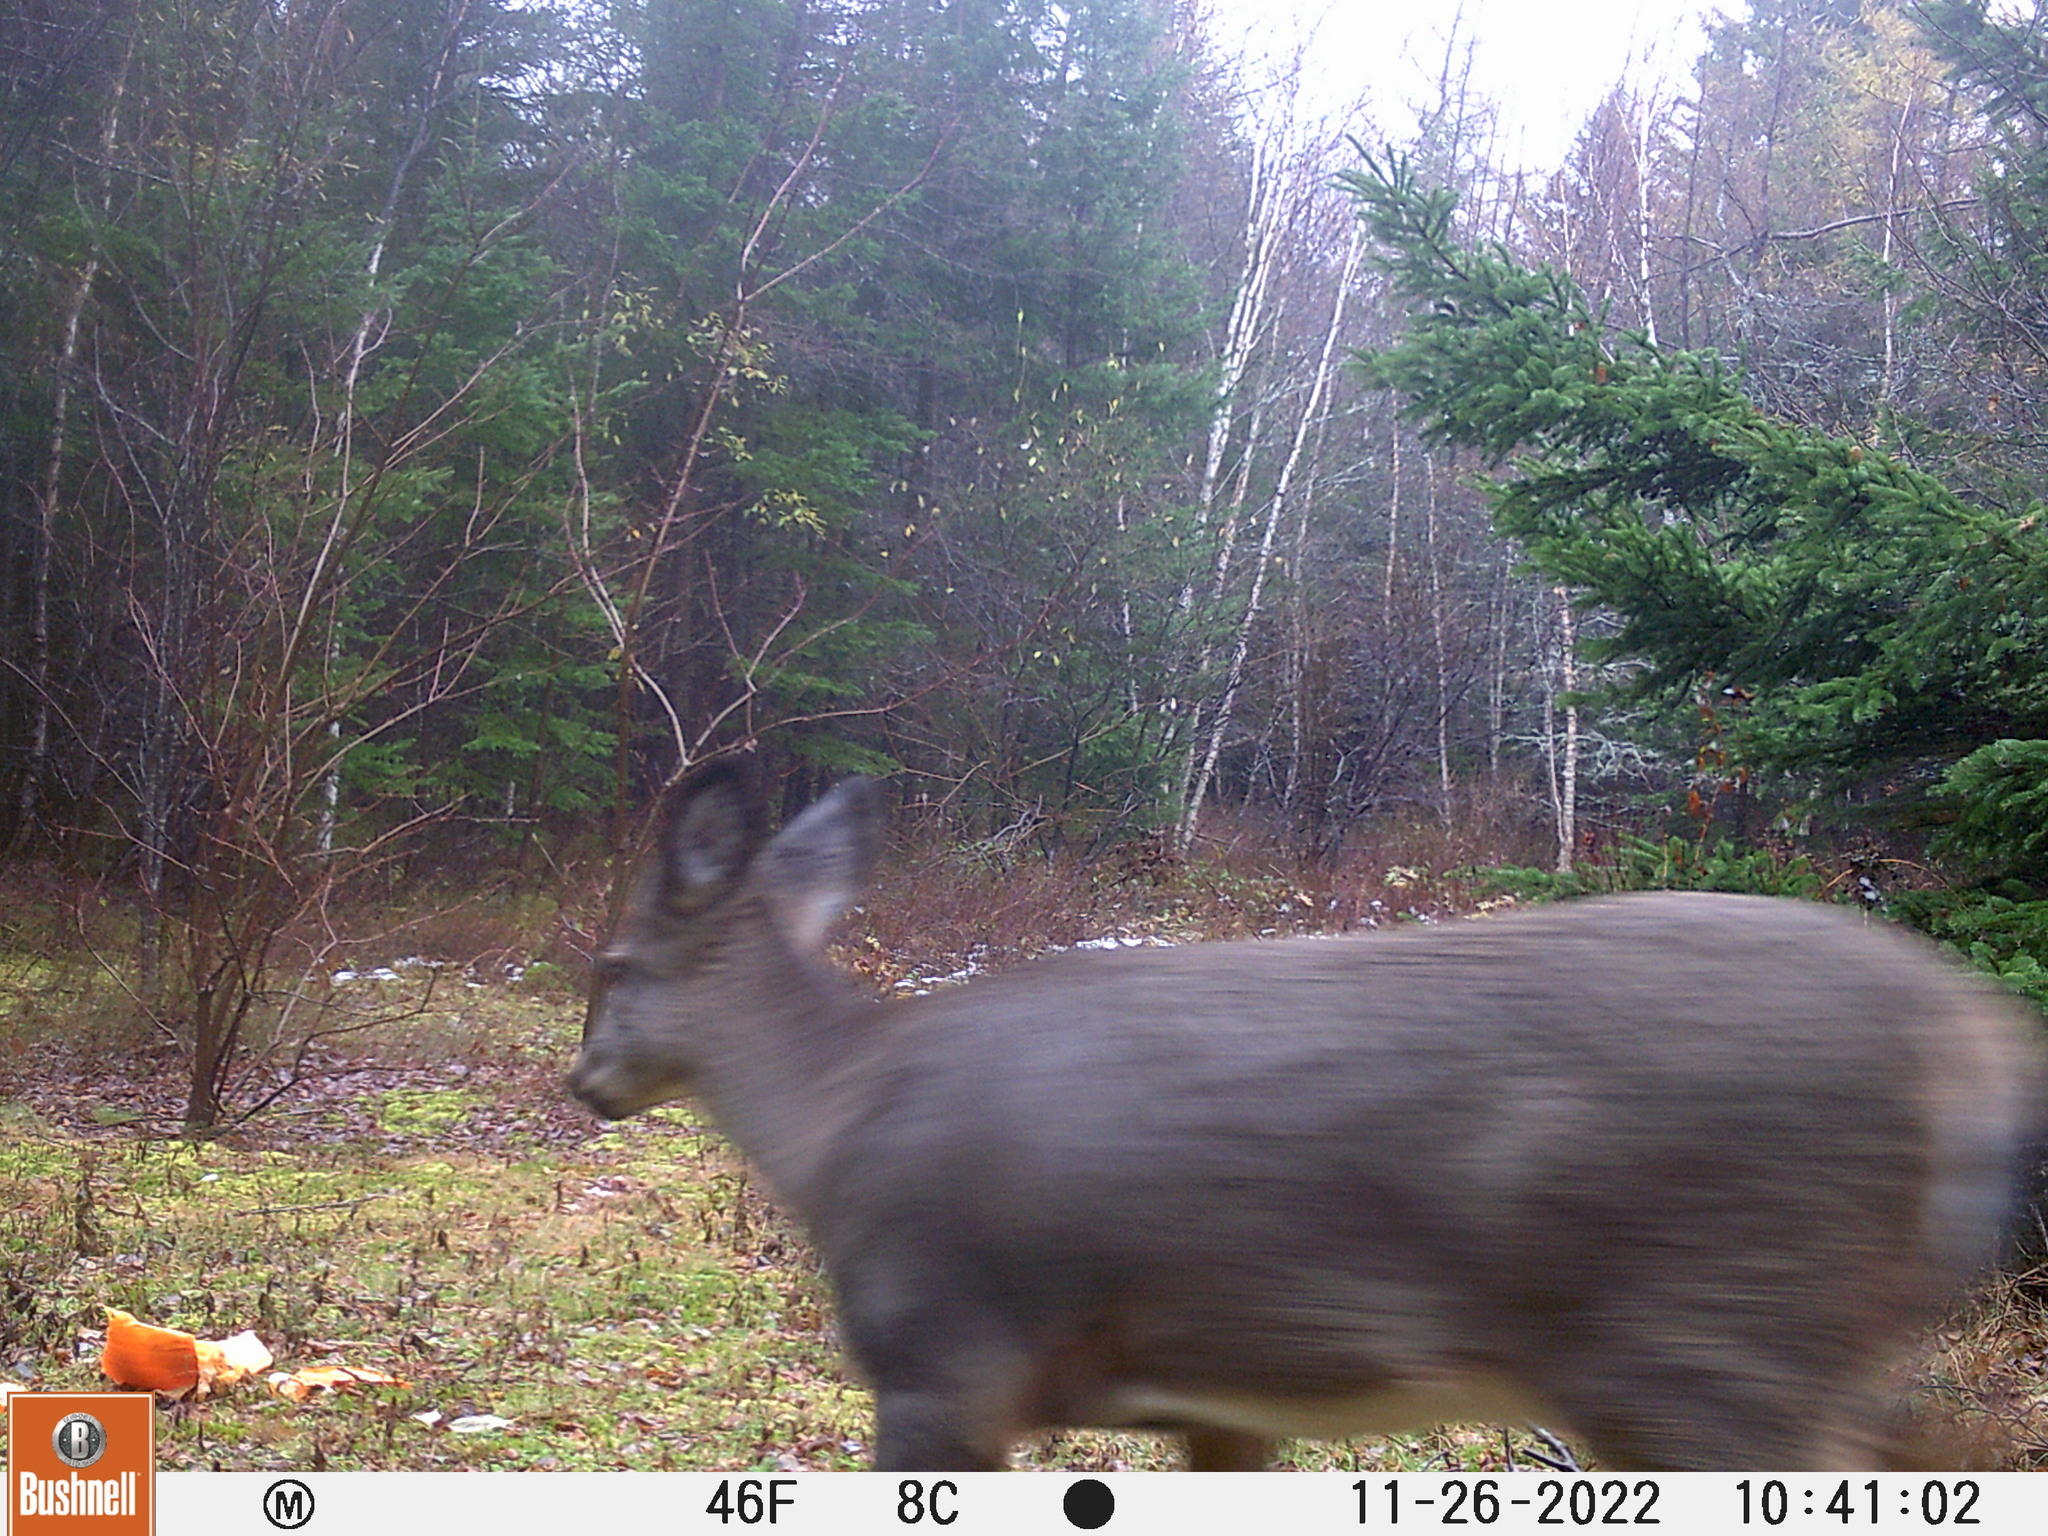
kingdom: Animalia
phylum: Chordata
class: Mammalia
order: Artiodactyla
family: Cervidae
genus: Odocoileus
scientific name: Odocoileus virginianus
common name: White-tailed deer
